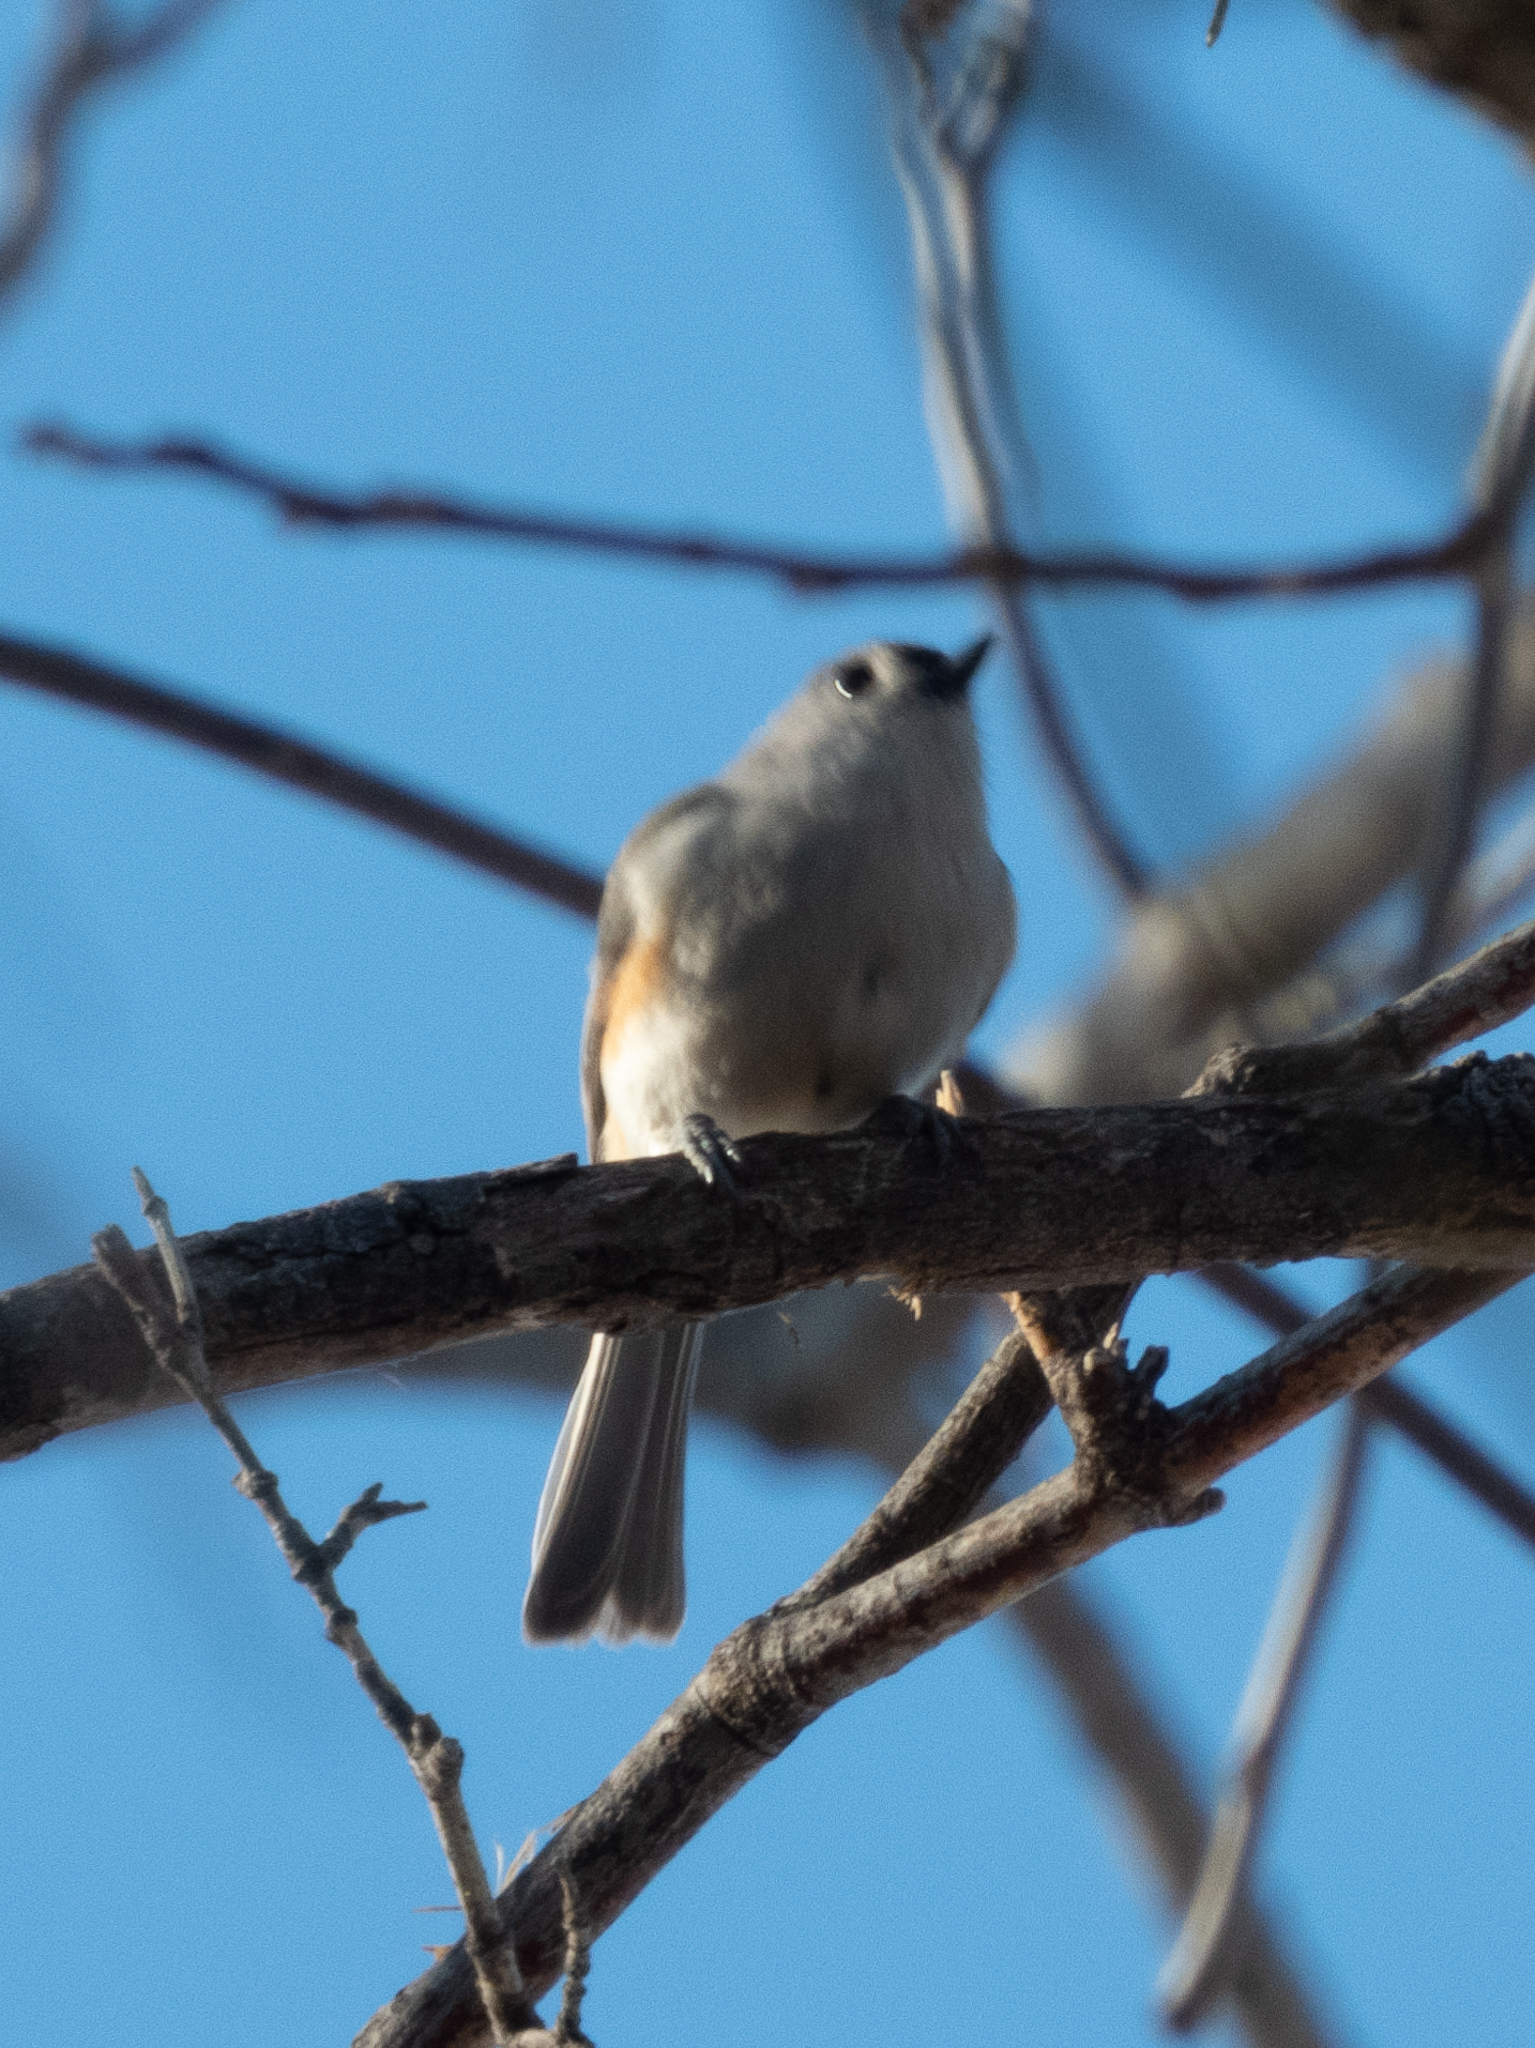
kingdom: Animalia
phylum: Chordata
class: Aves
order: Passeriformes
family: Paridae
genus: Baeolophus
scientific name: Baeolophus bicolor
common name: Tufted titmouse
